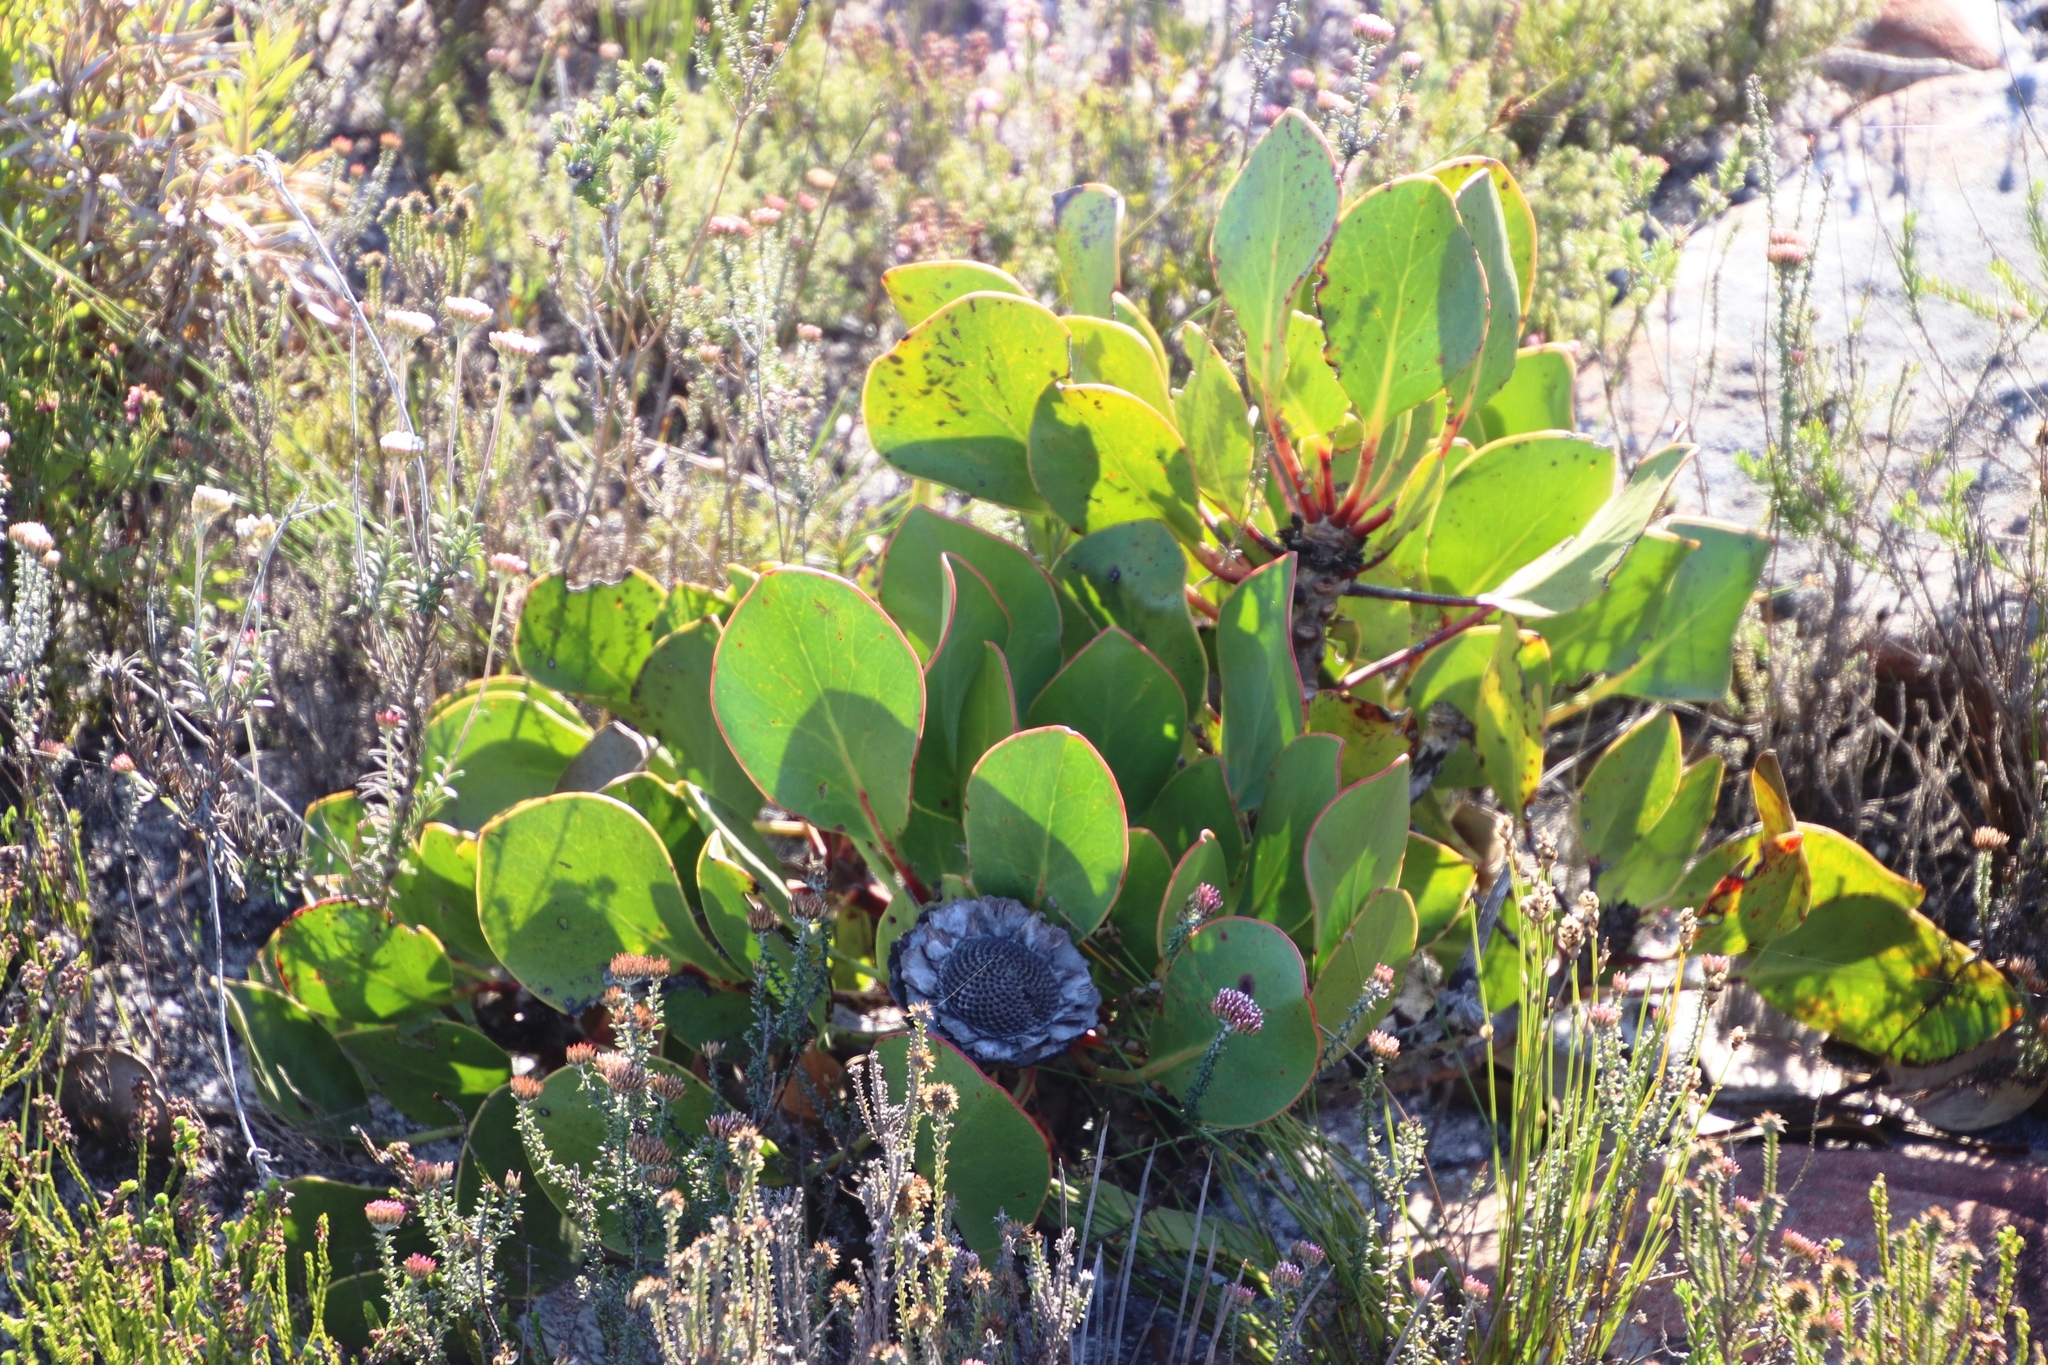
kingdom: Plantae
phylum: Tracheophyta
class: Magnoliopsida
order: Proteales
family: Proteaceae
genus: Protea
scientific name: Protea cynaroides
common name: King protea
